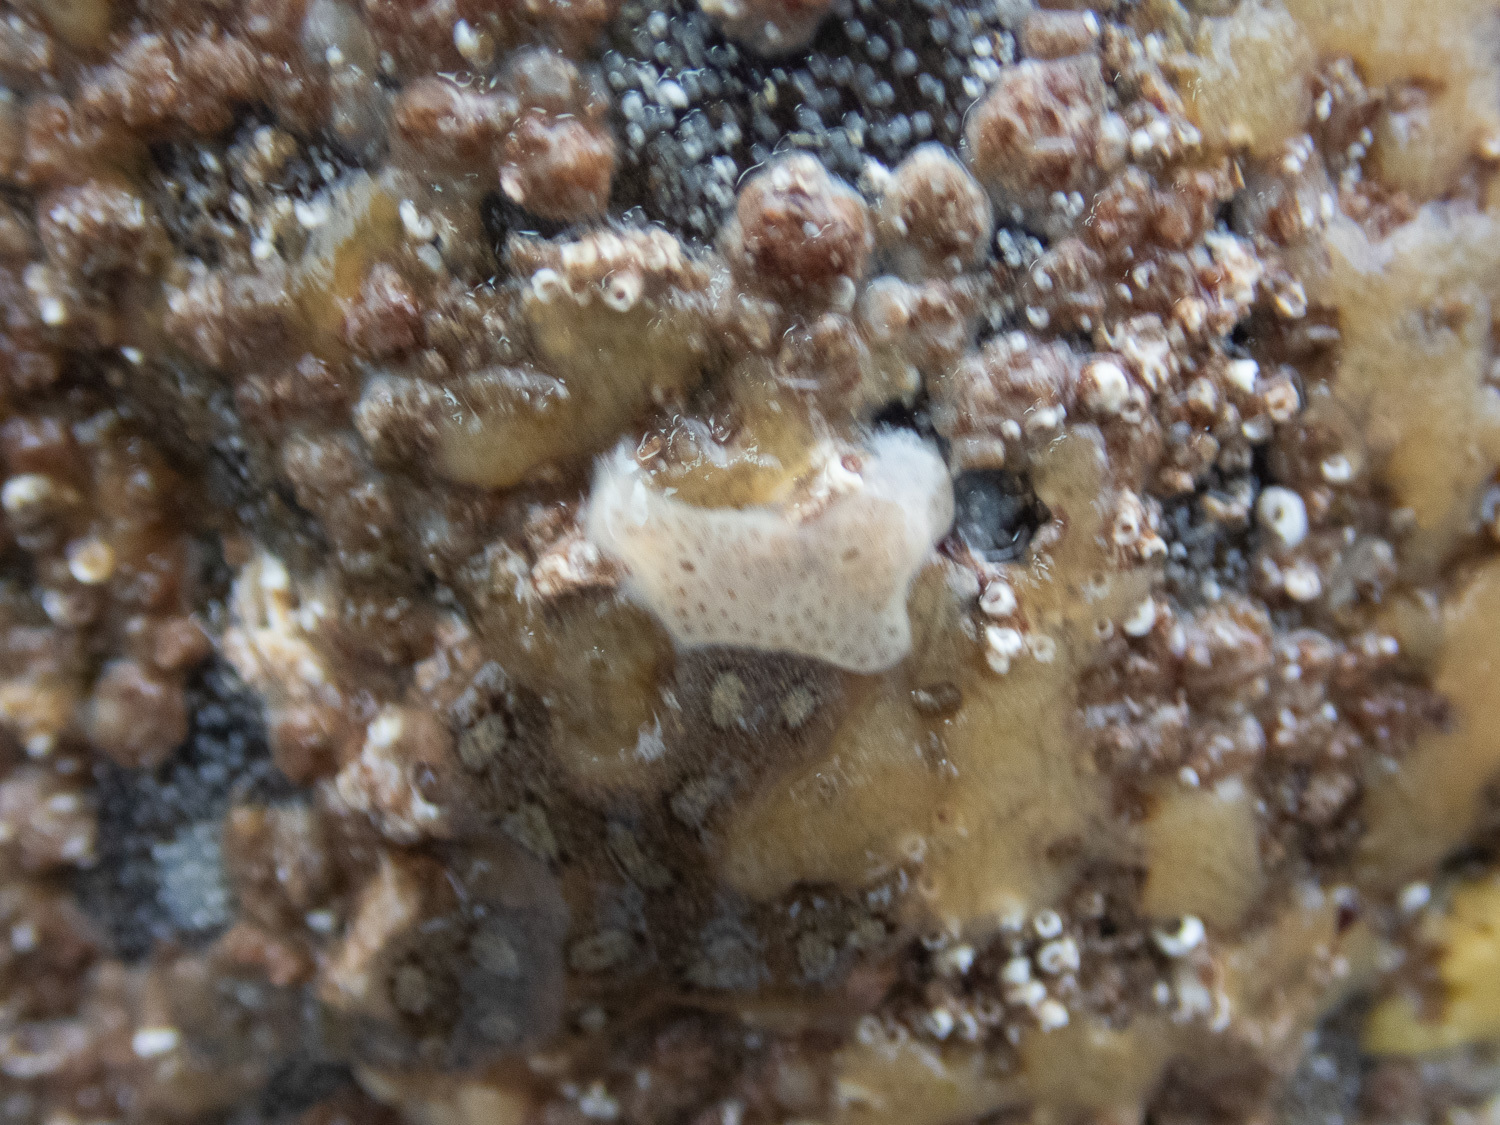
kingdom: Animalia
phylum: Chordata
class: Ascidiacea
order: Aplousobranchia
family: Didemnidae
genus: Lissoclinum
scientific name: Lissoclinum perforatum
